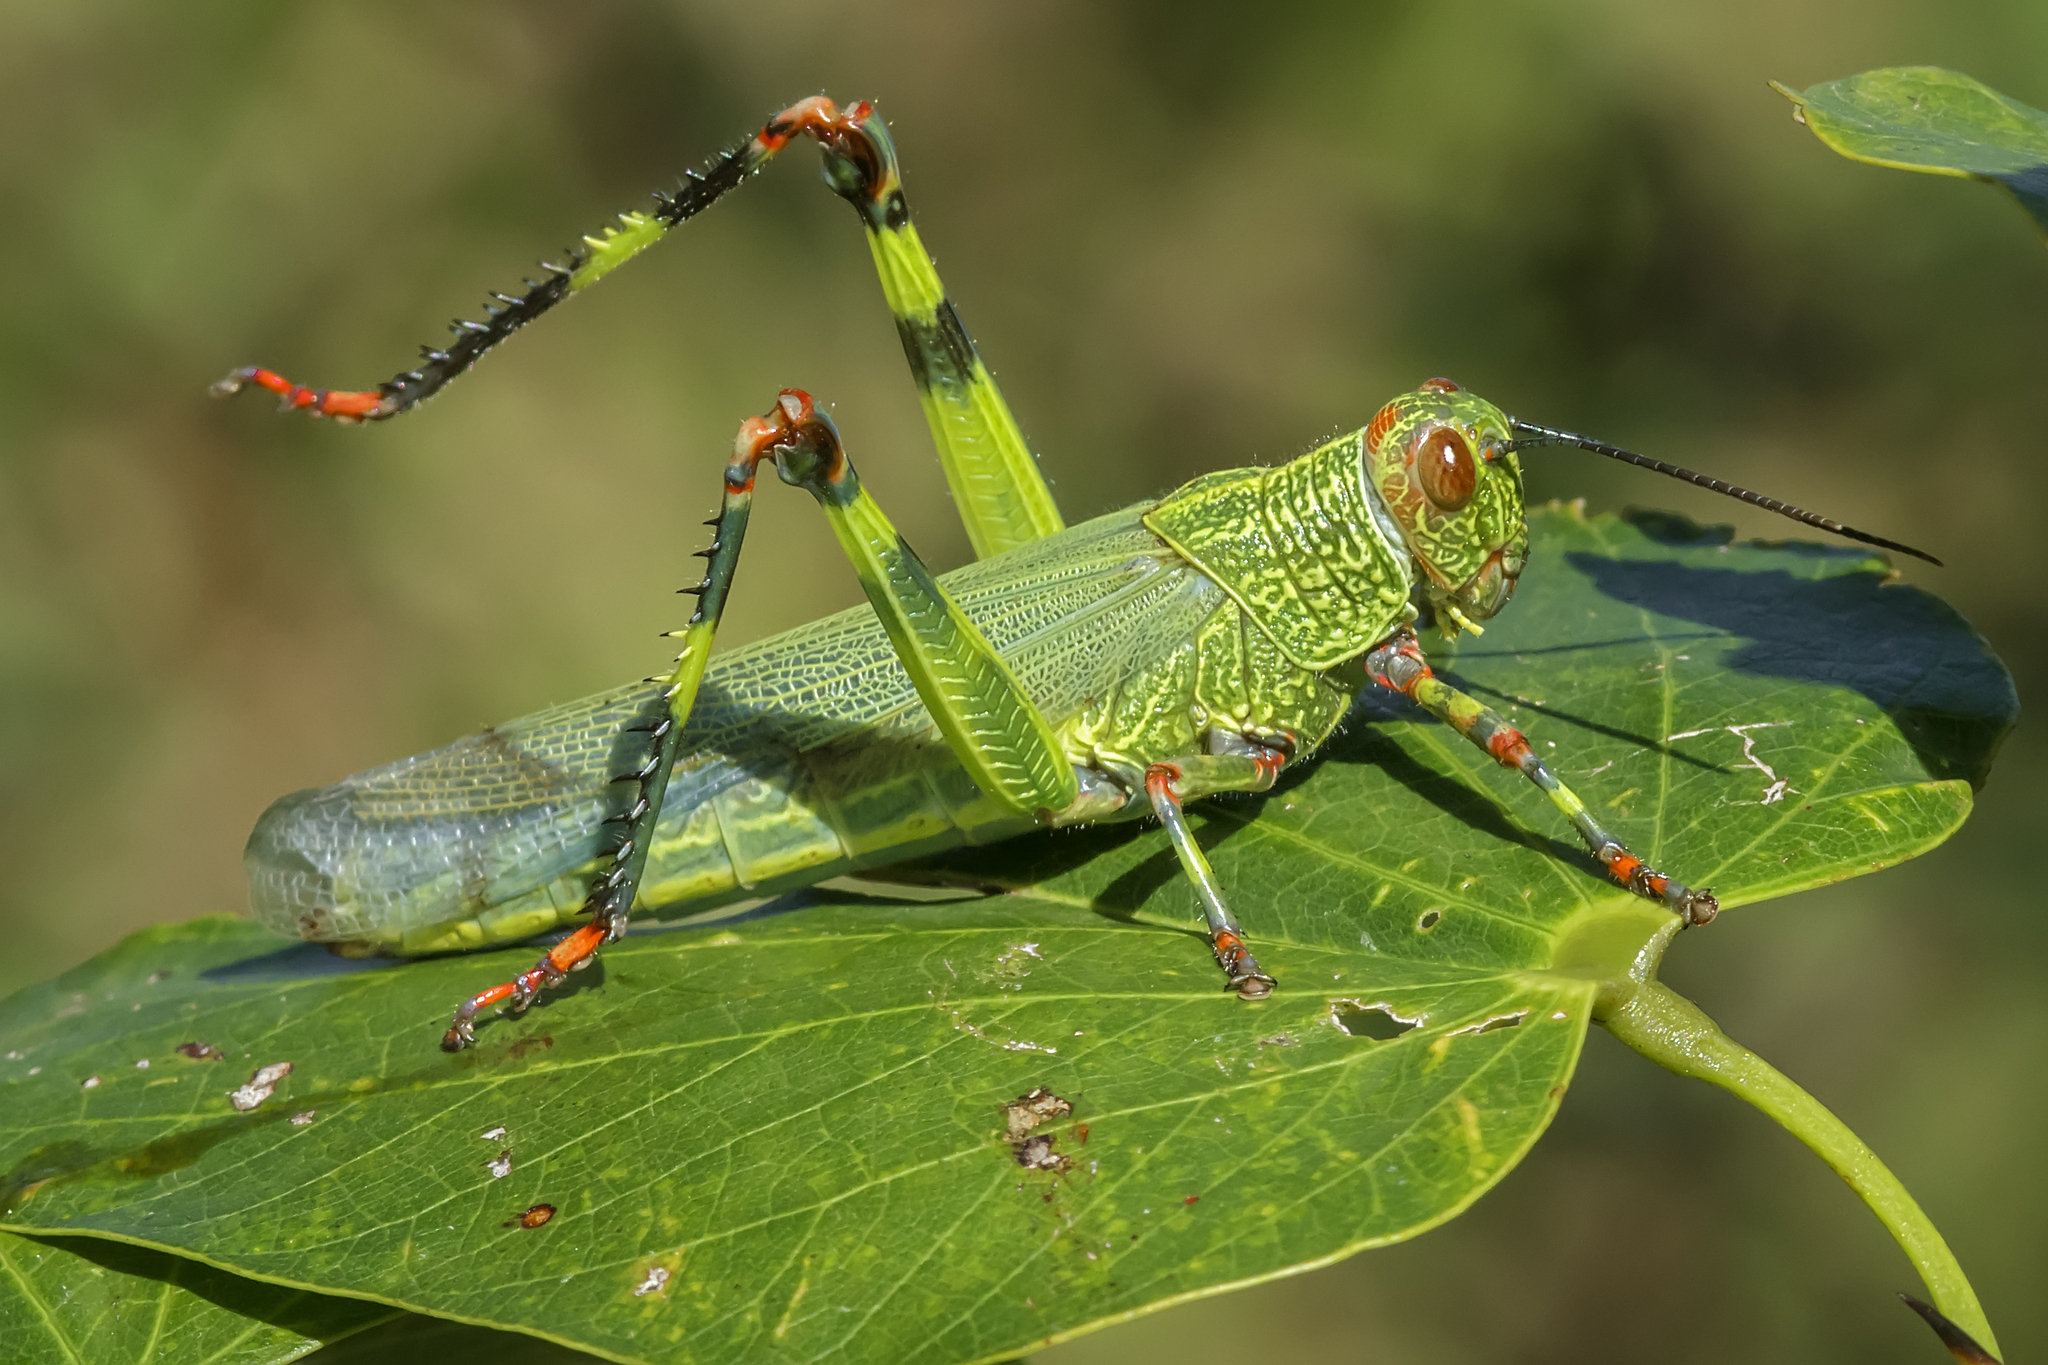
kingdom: Animalia
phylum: Arthropoda
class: Insecta
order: Orthoptera
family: Romaleidae
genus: Zoniopoda
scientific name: Zoniopoda tarsata
